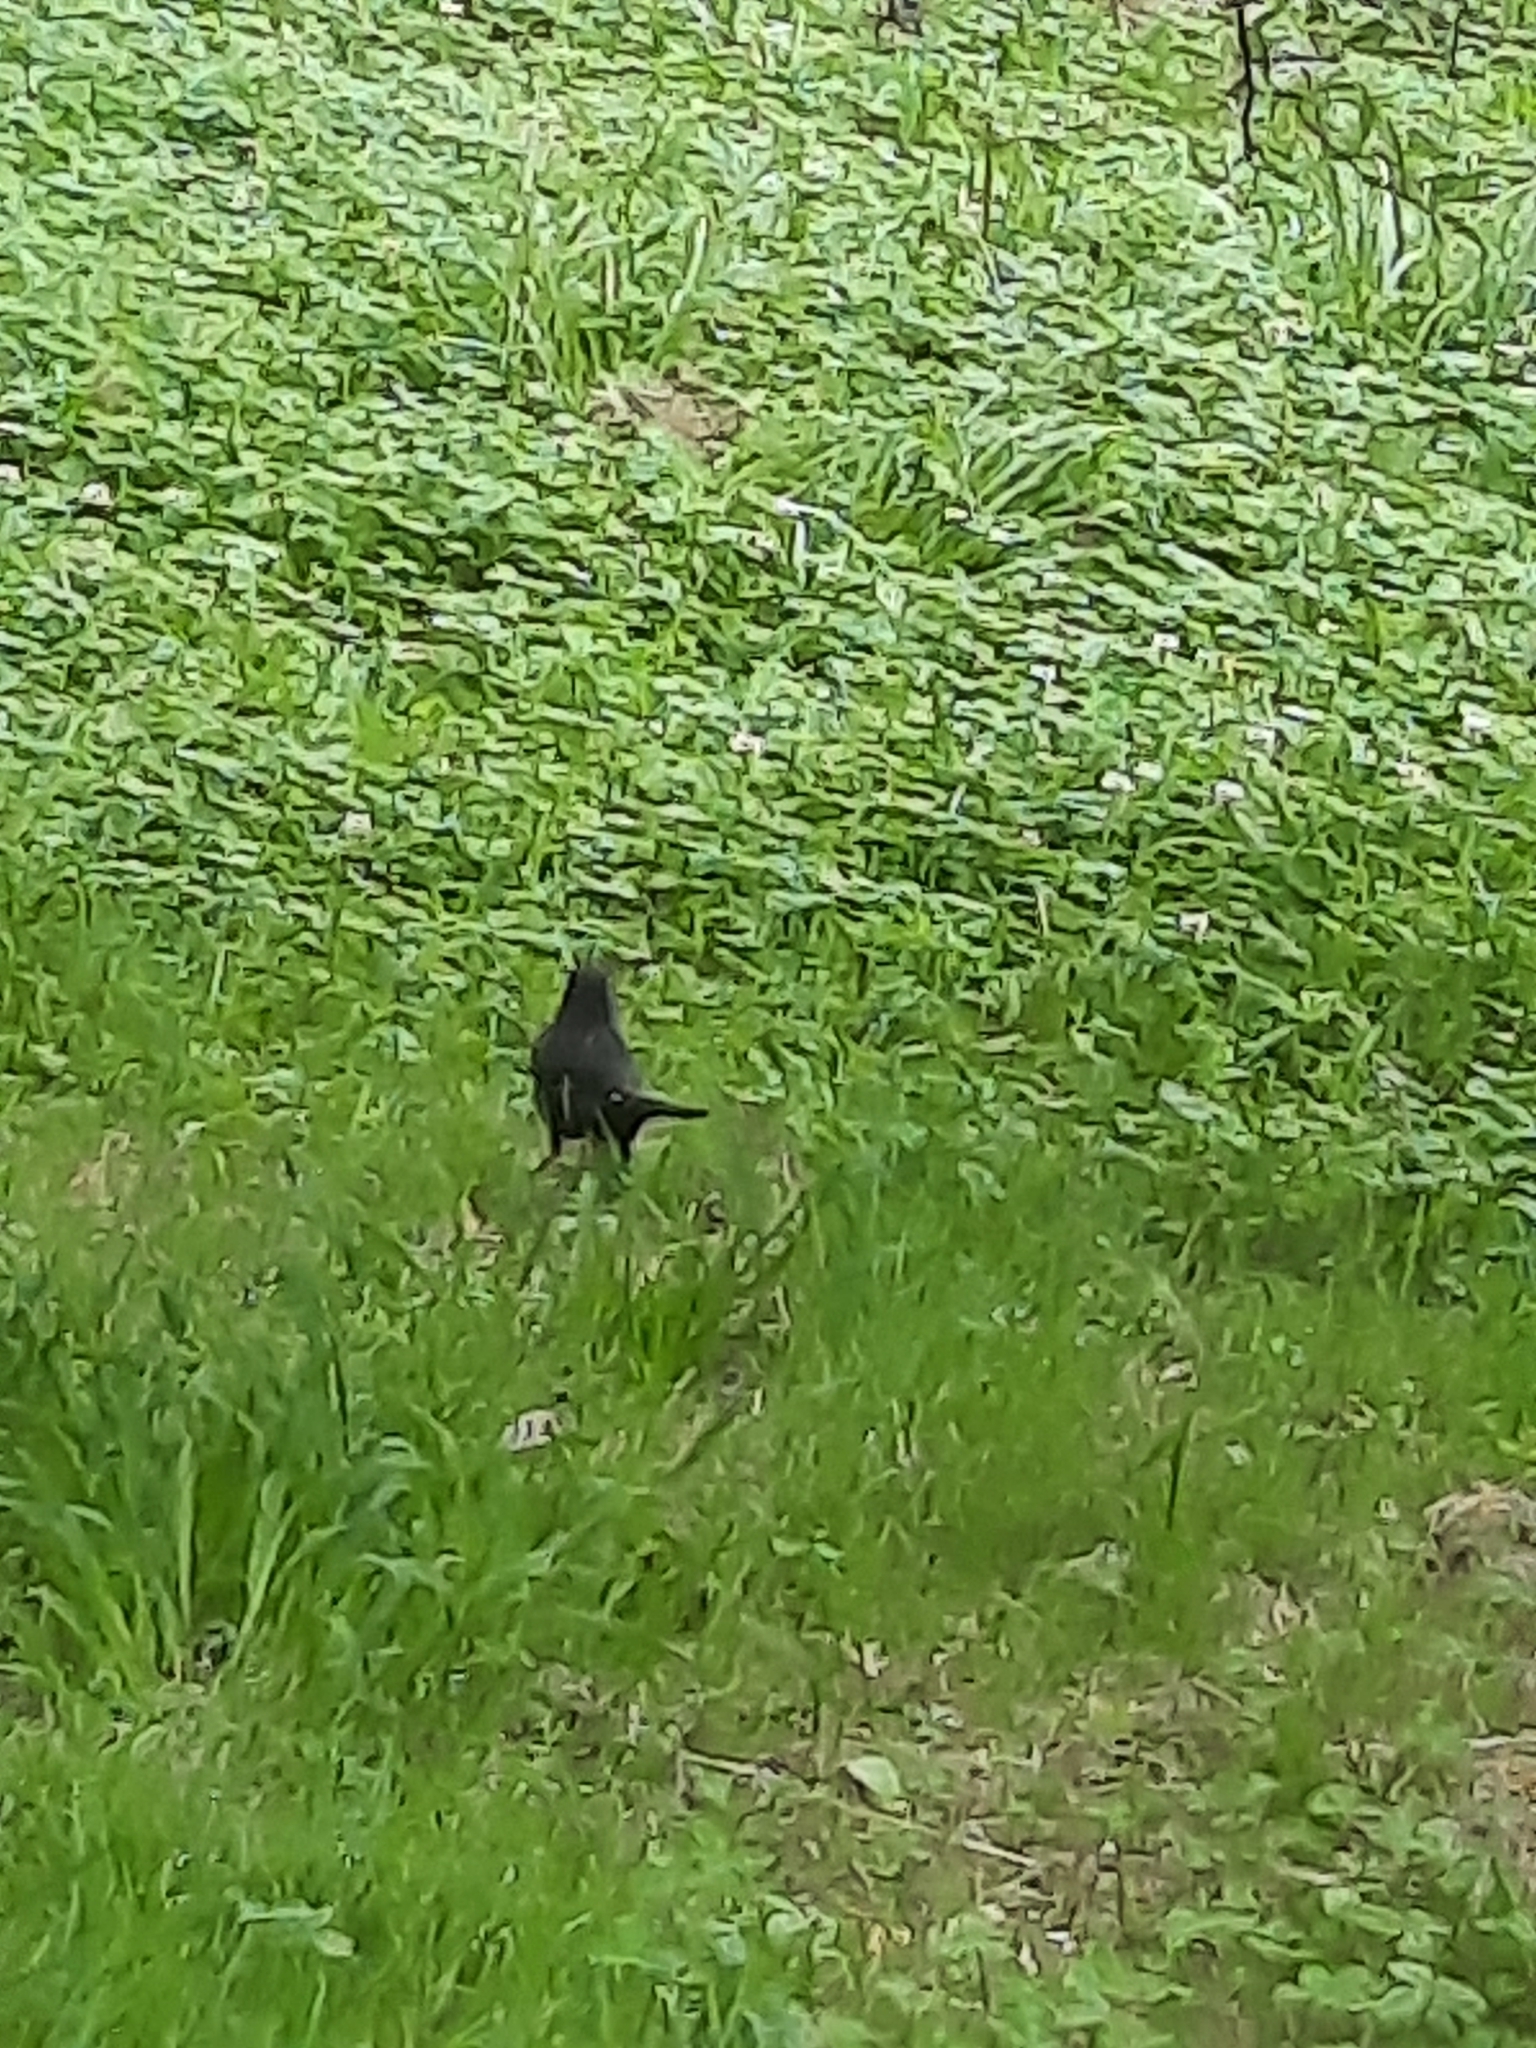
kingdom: Animalia
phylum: Chordata
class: Aves
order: Passeriformes
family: Turdidae
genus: Turdus
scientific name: Turdus merula
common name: Common blackbird
